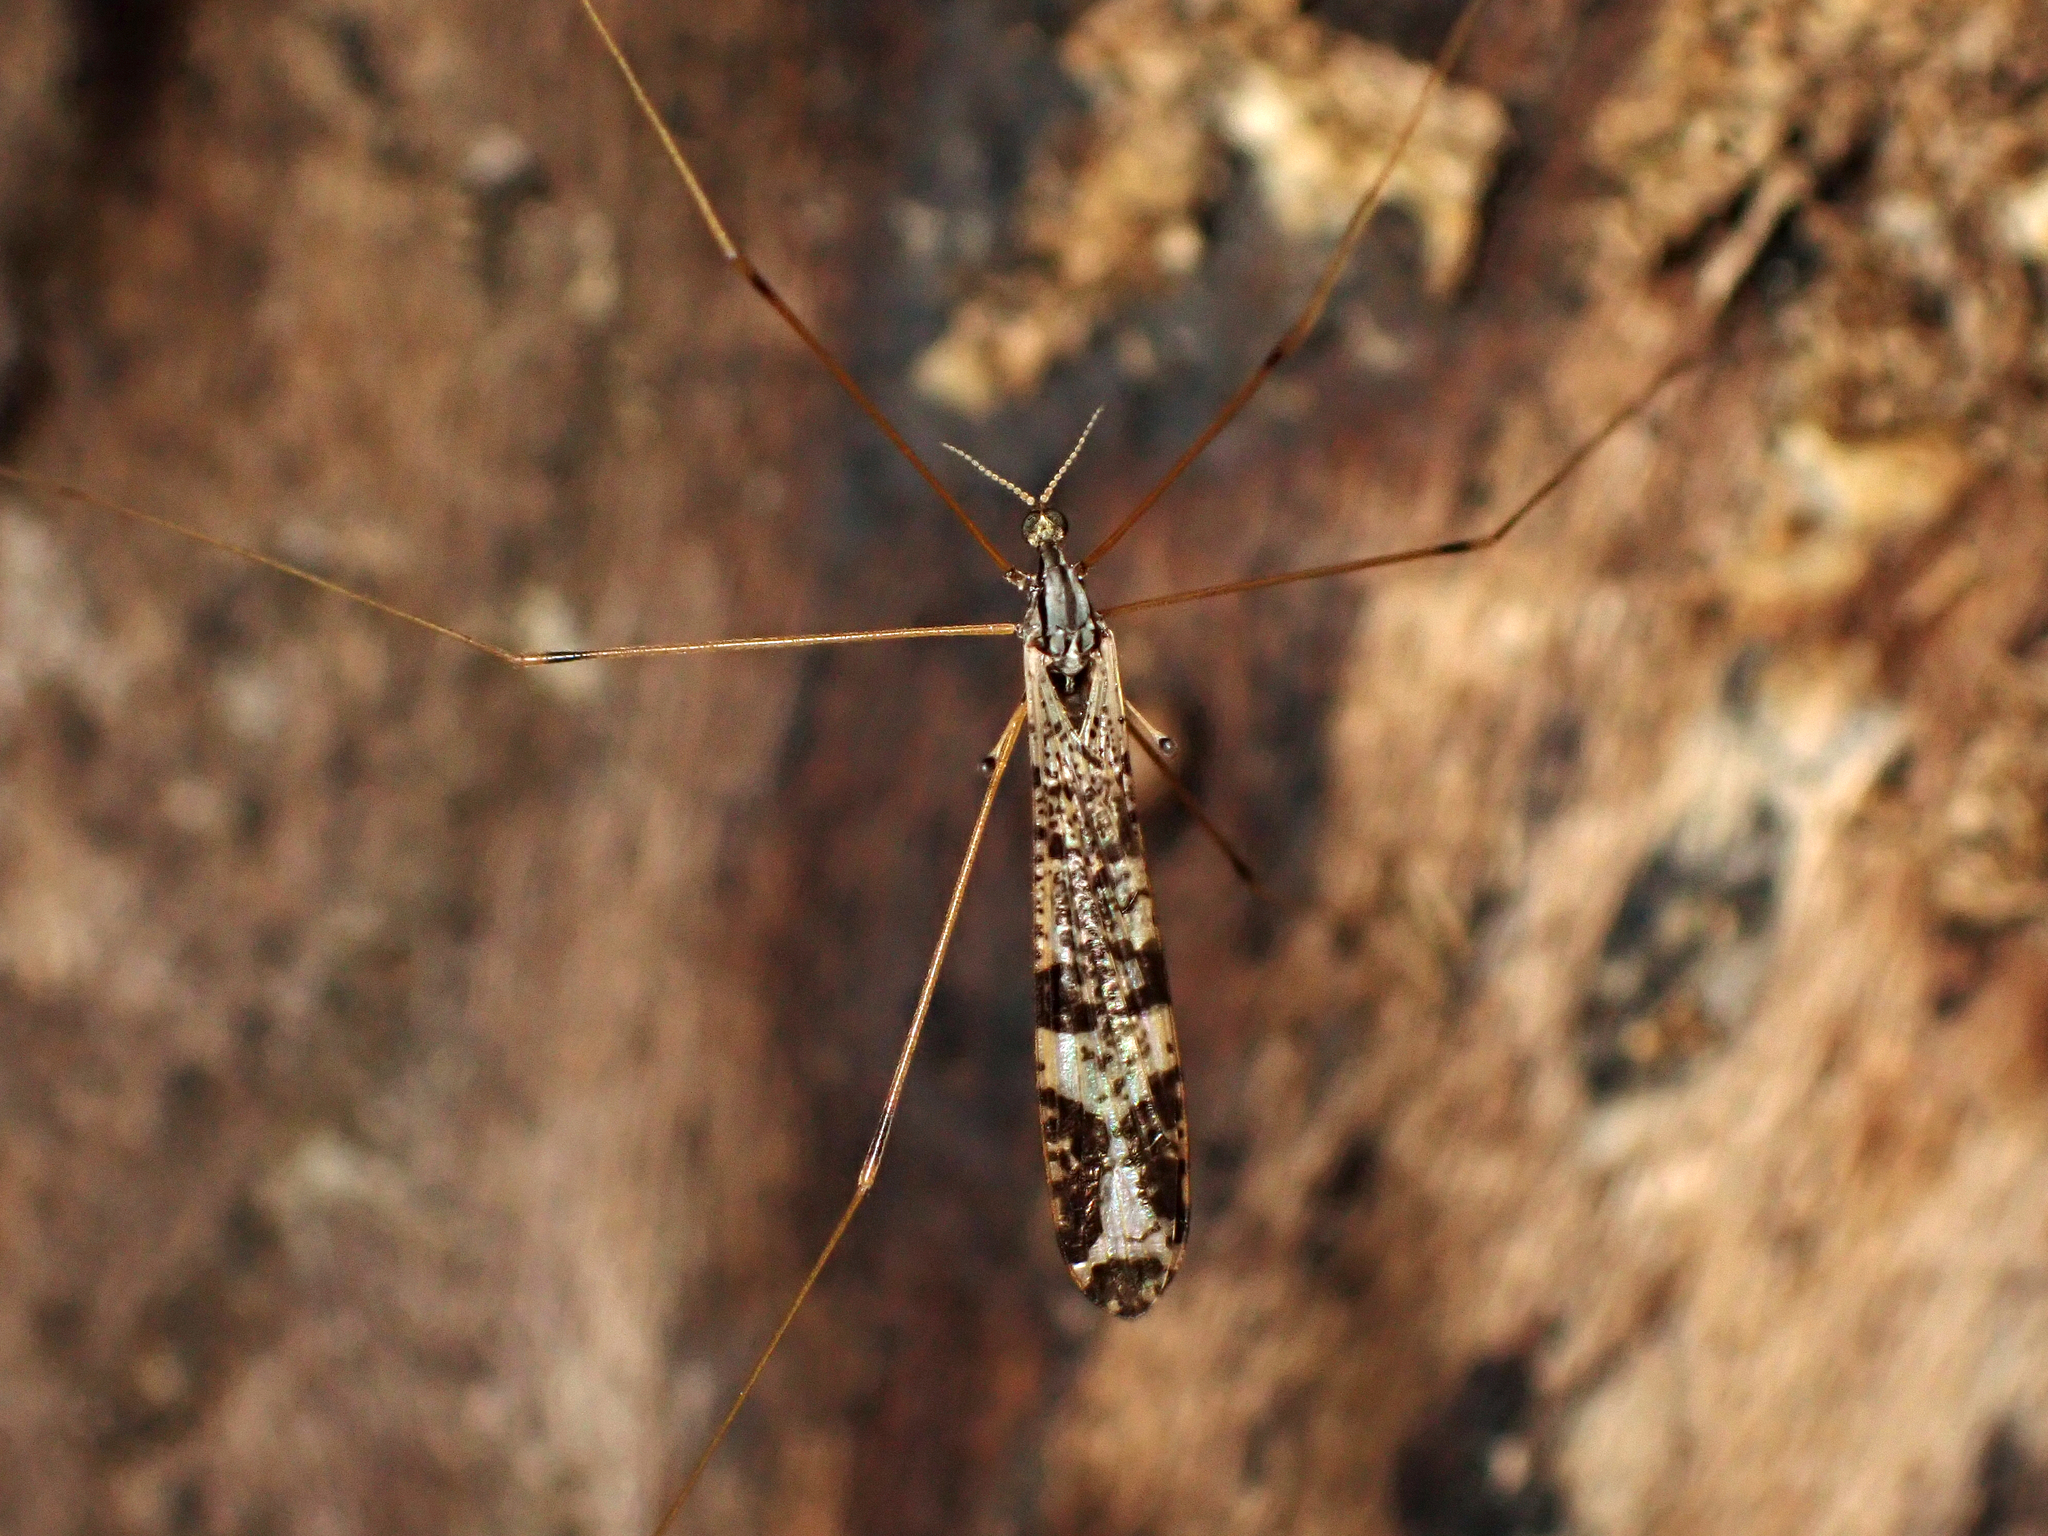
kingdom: Animalia
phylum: Arthropoda
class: Insecta
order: Diptera
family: Limoniidae
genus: Discobola
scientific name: Discobola venustula
